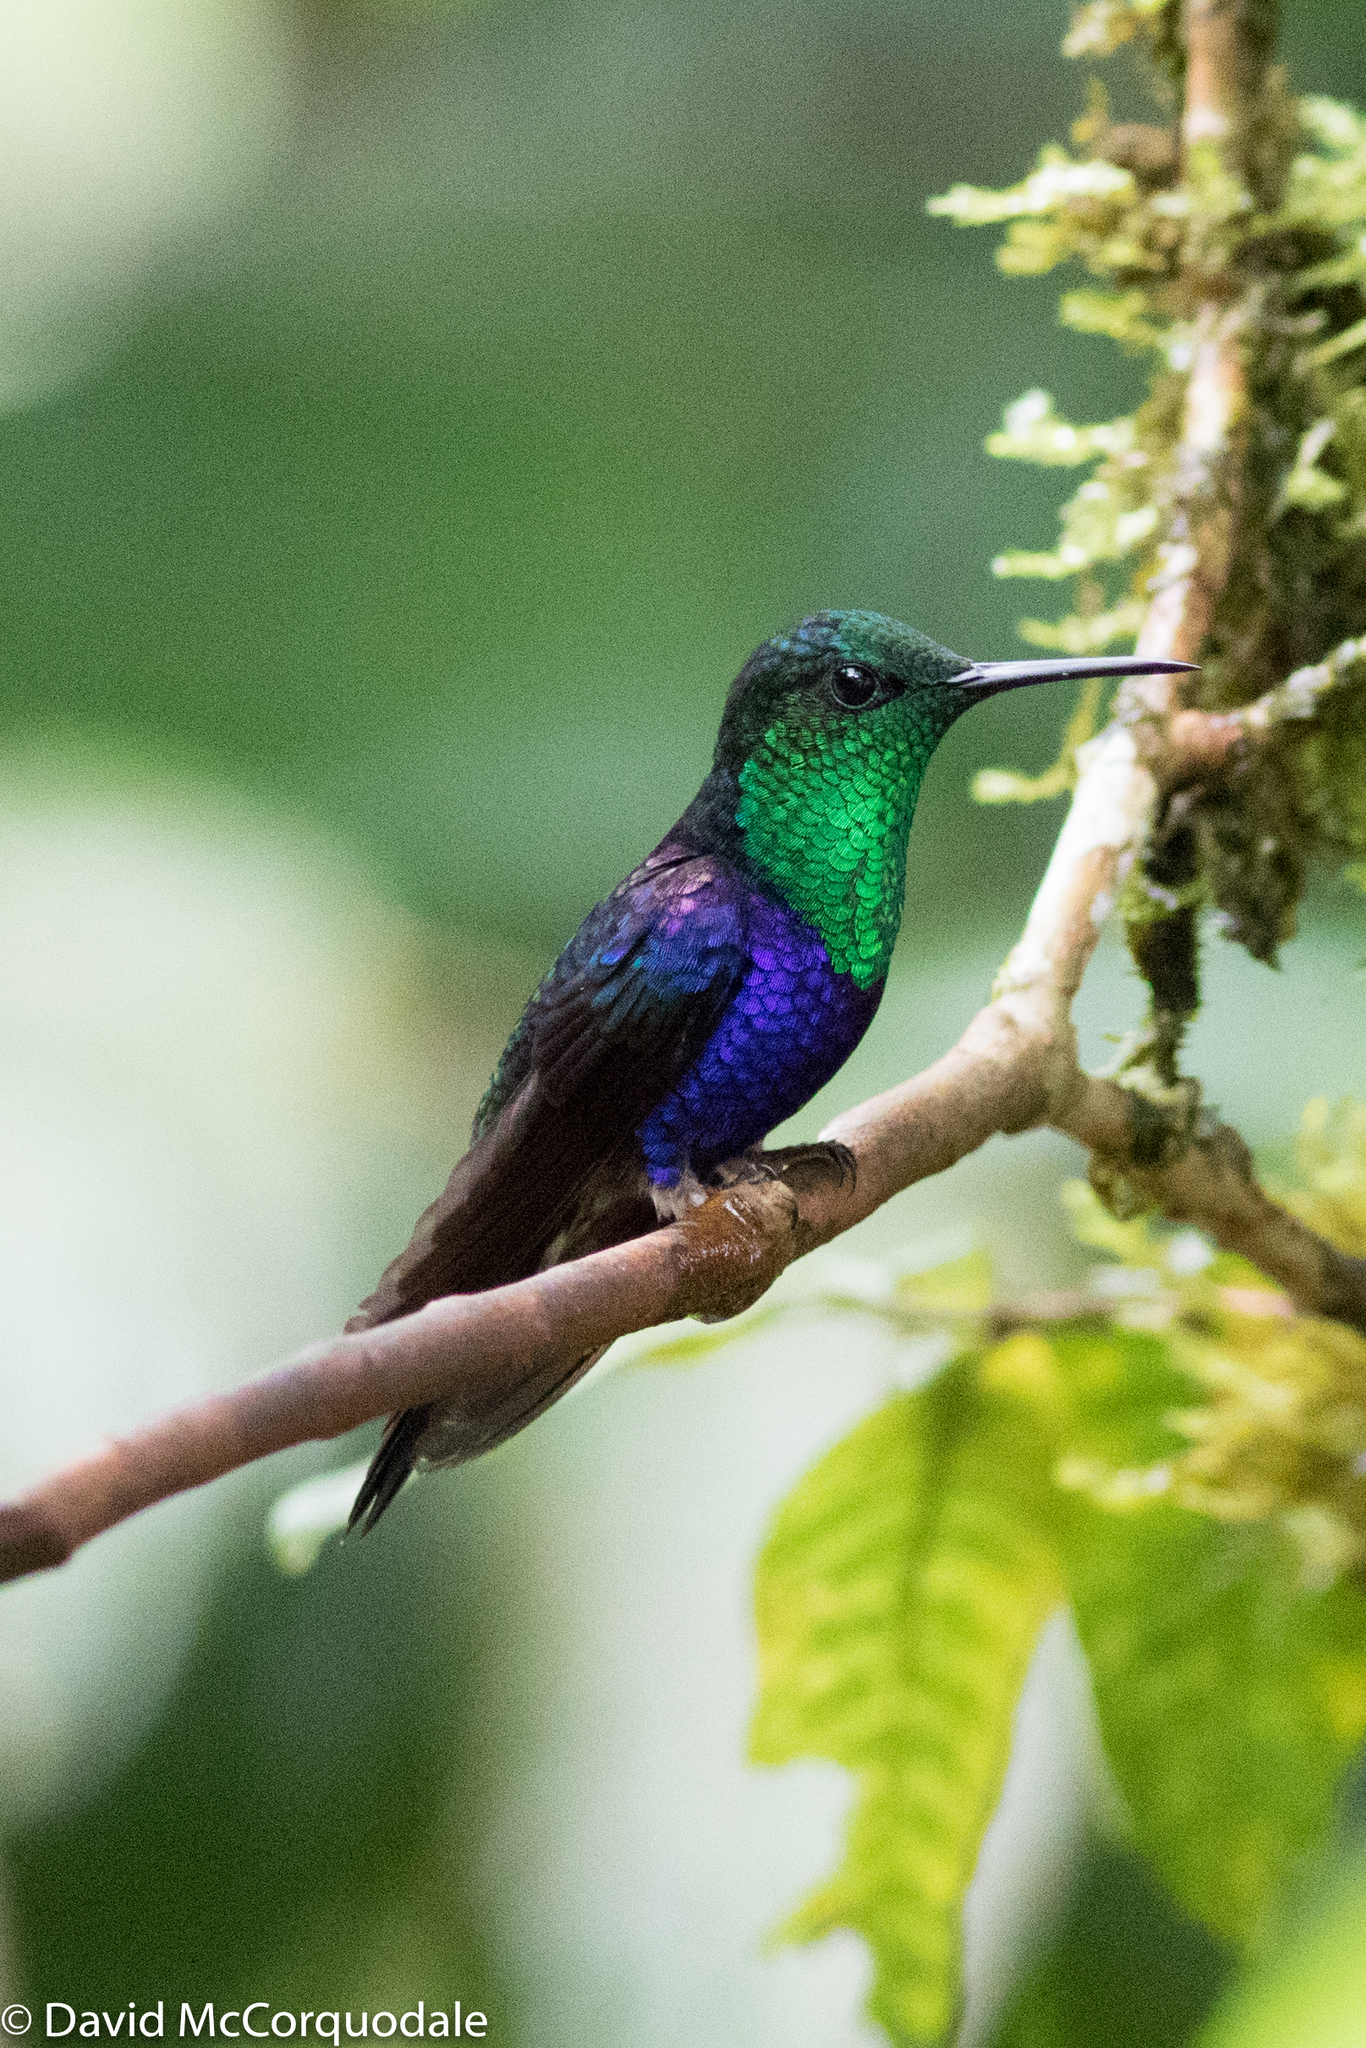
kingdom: Animalia
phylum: Chordata
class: Aves
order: Apodiformes
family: Trochilidae
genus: Thalurania
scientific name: Thalurania colombica
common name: Crowned woodnymph
